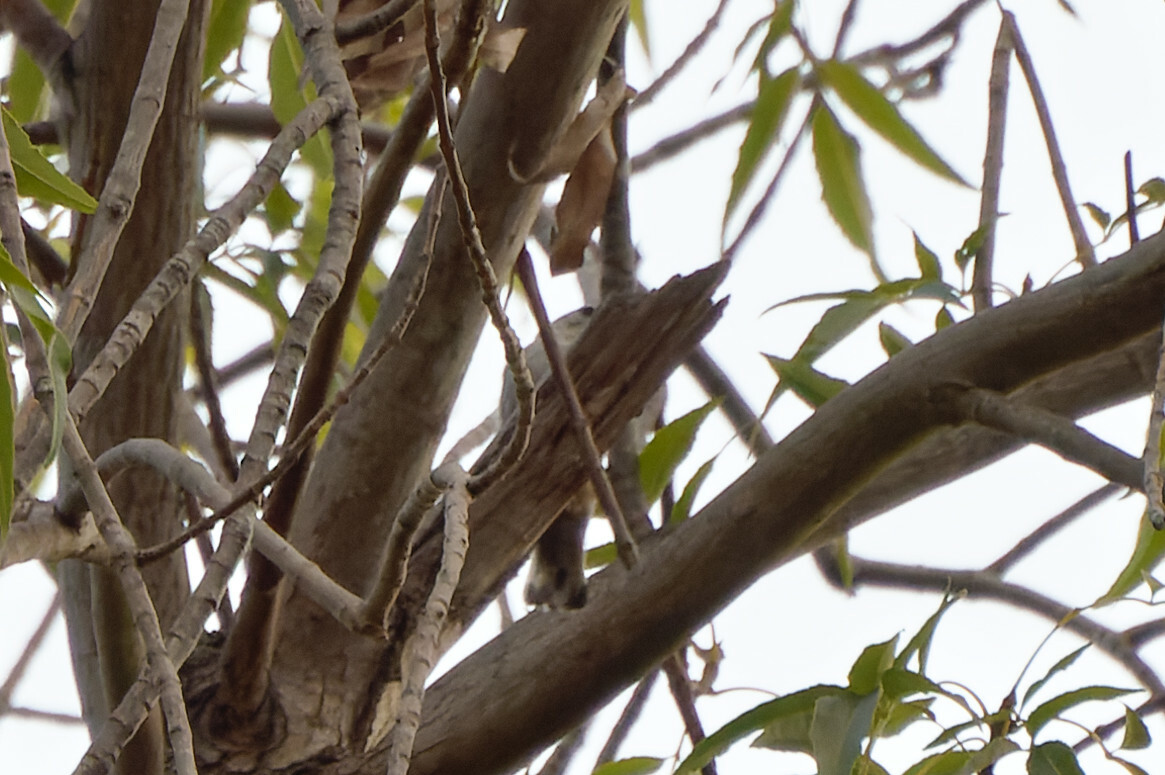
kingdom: Animalia
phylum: Chordata
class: Aves
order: Passeriformes
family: Sittidae
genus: Sitta
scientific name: Sitta carolinensis
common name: White-breasted nuthatch
